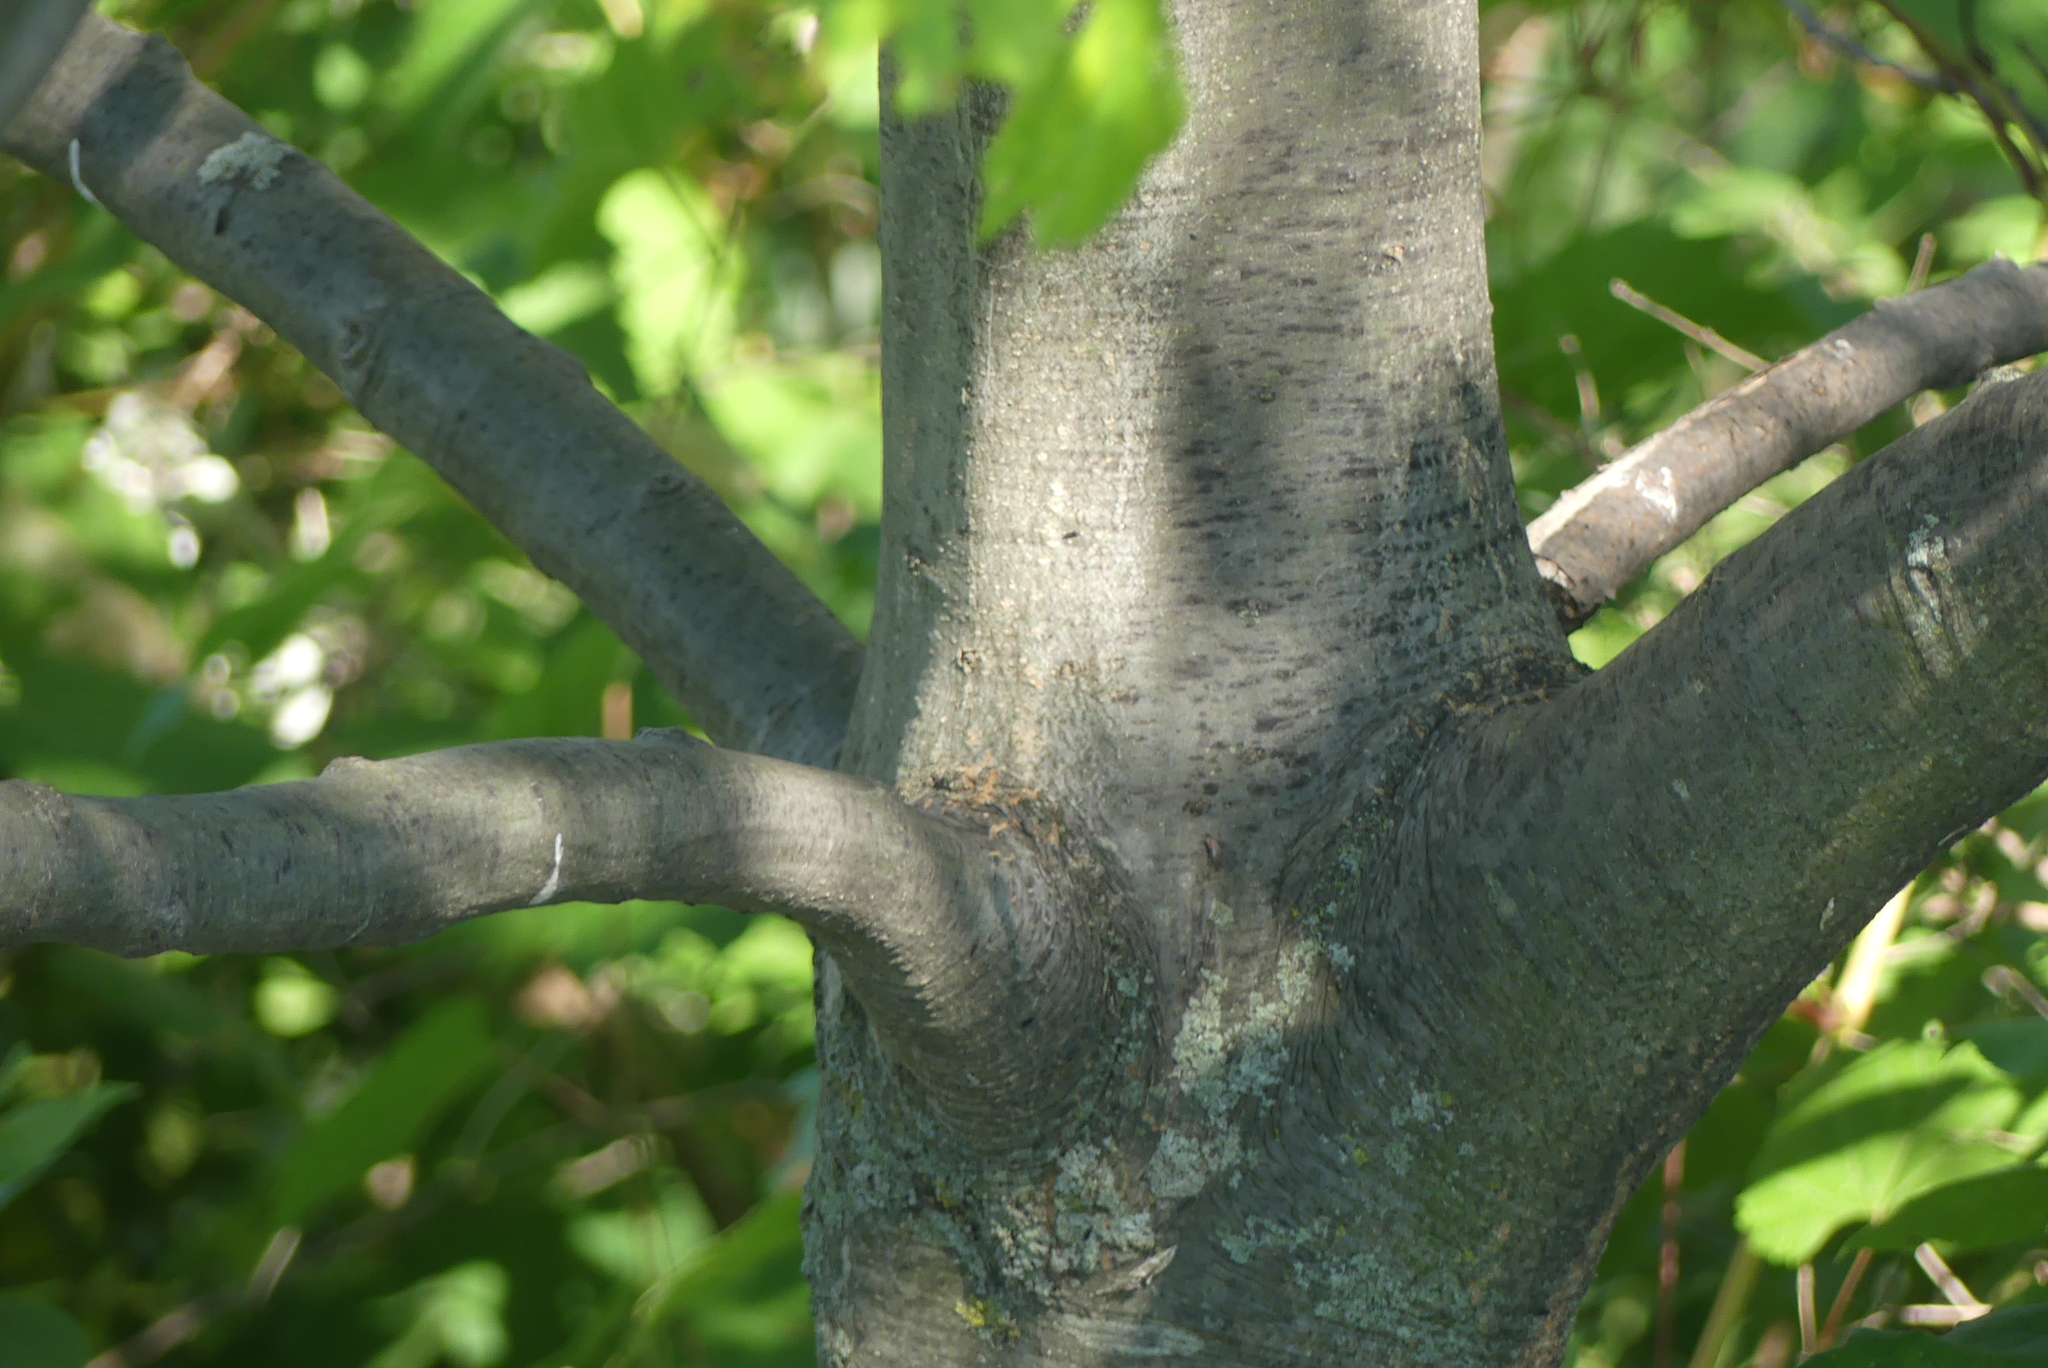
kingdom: Plantae
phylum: Tracheophyta
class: Magnoliopsida
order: Fagales
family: Fagaceae
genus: Quercus
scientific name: Quercus rubra
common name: Red oak
